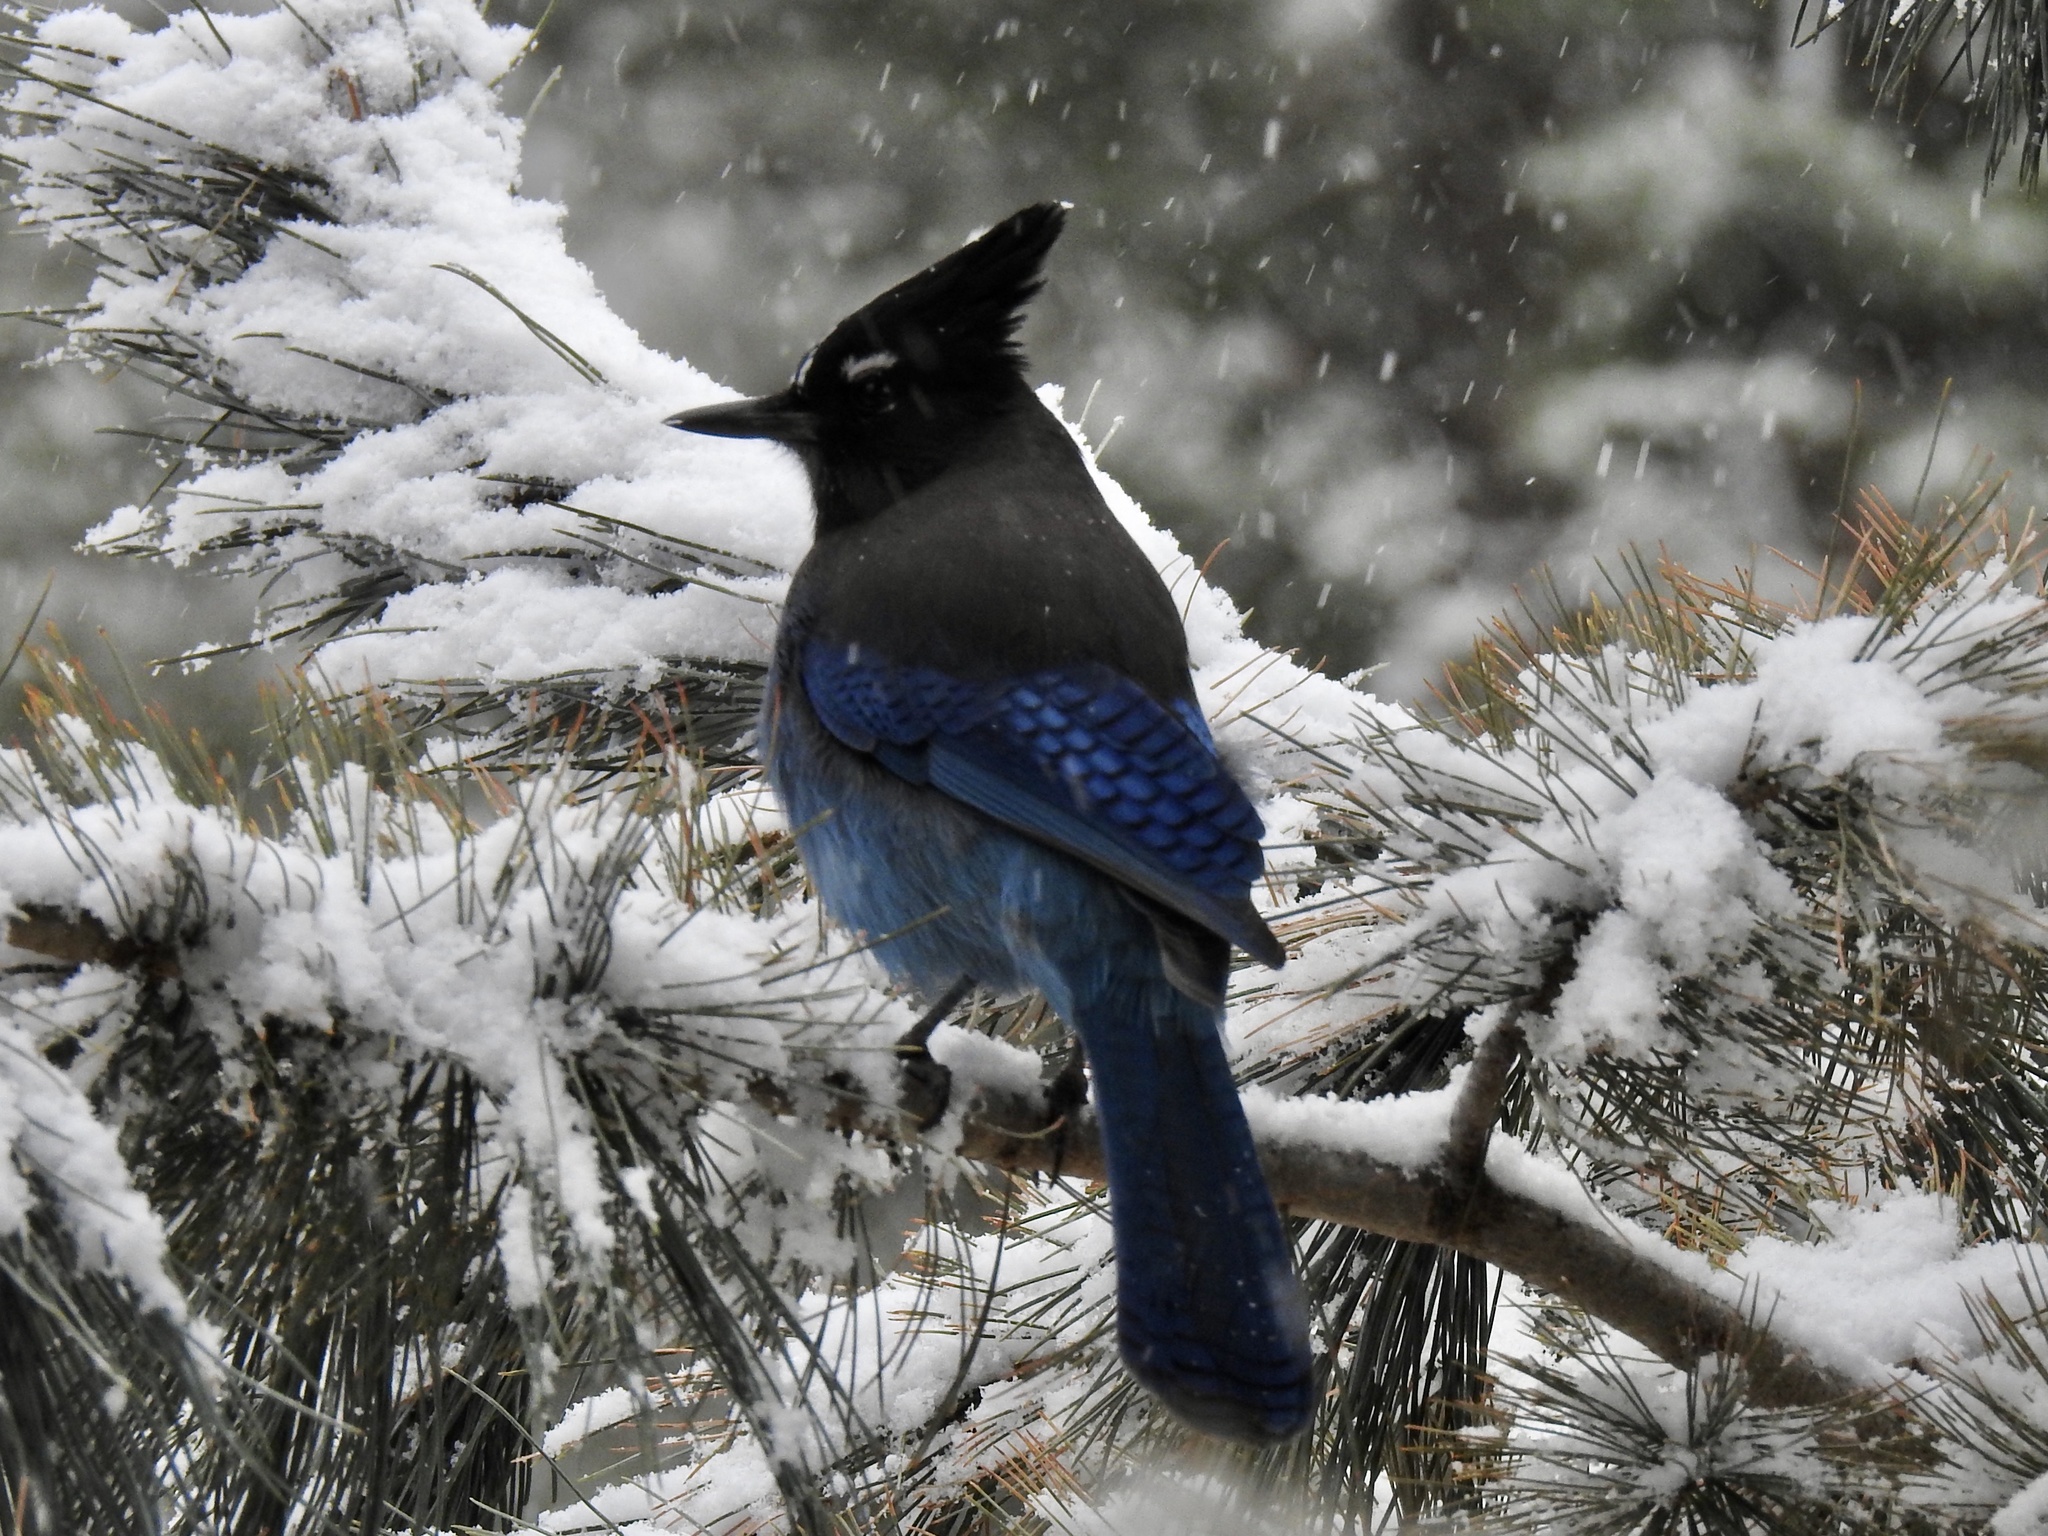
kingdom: Animalia
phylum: Chordata
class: Aves
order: Passeriformes
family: Corvidae
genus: Cyanocitta
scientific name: Cyanocitta stelleri
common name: Steller's jay
